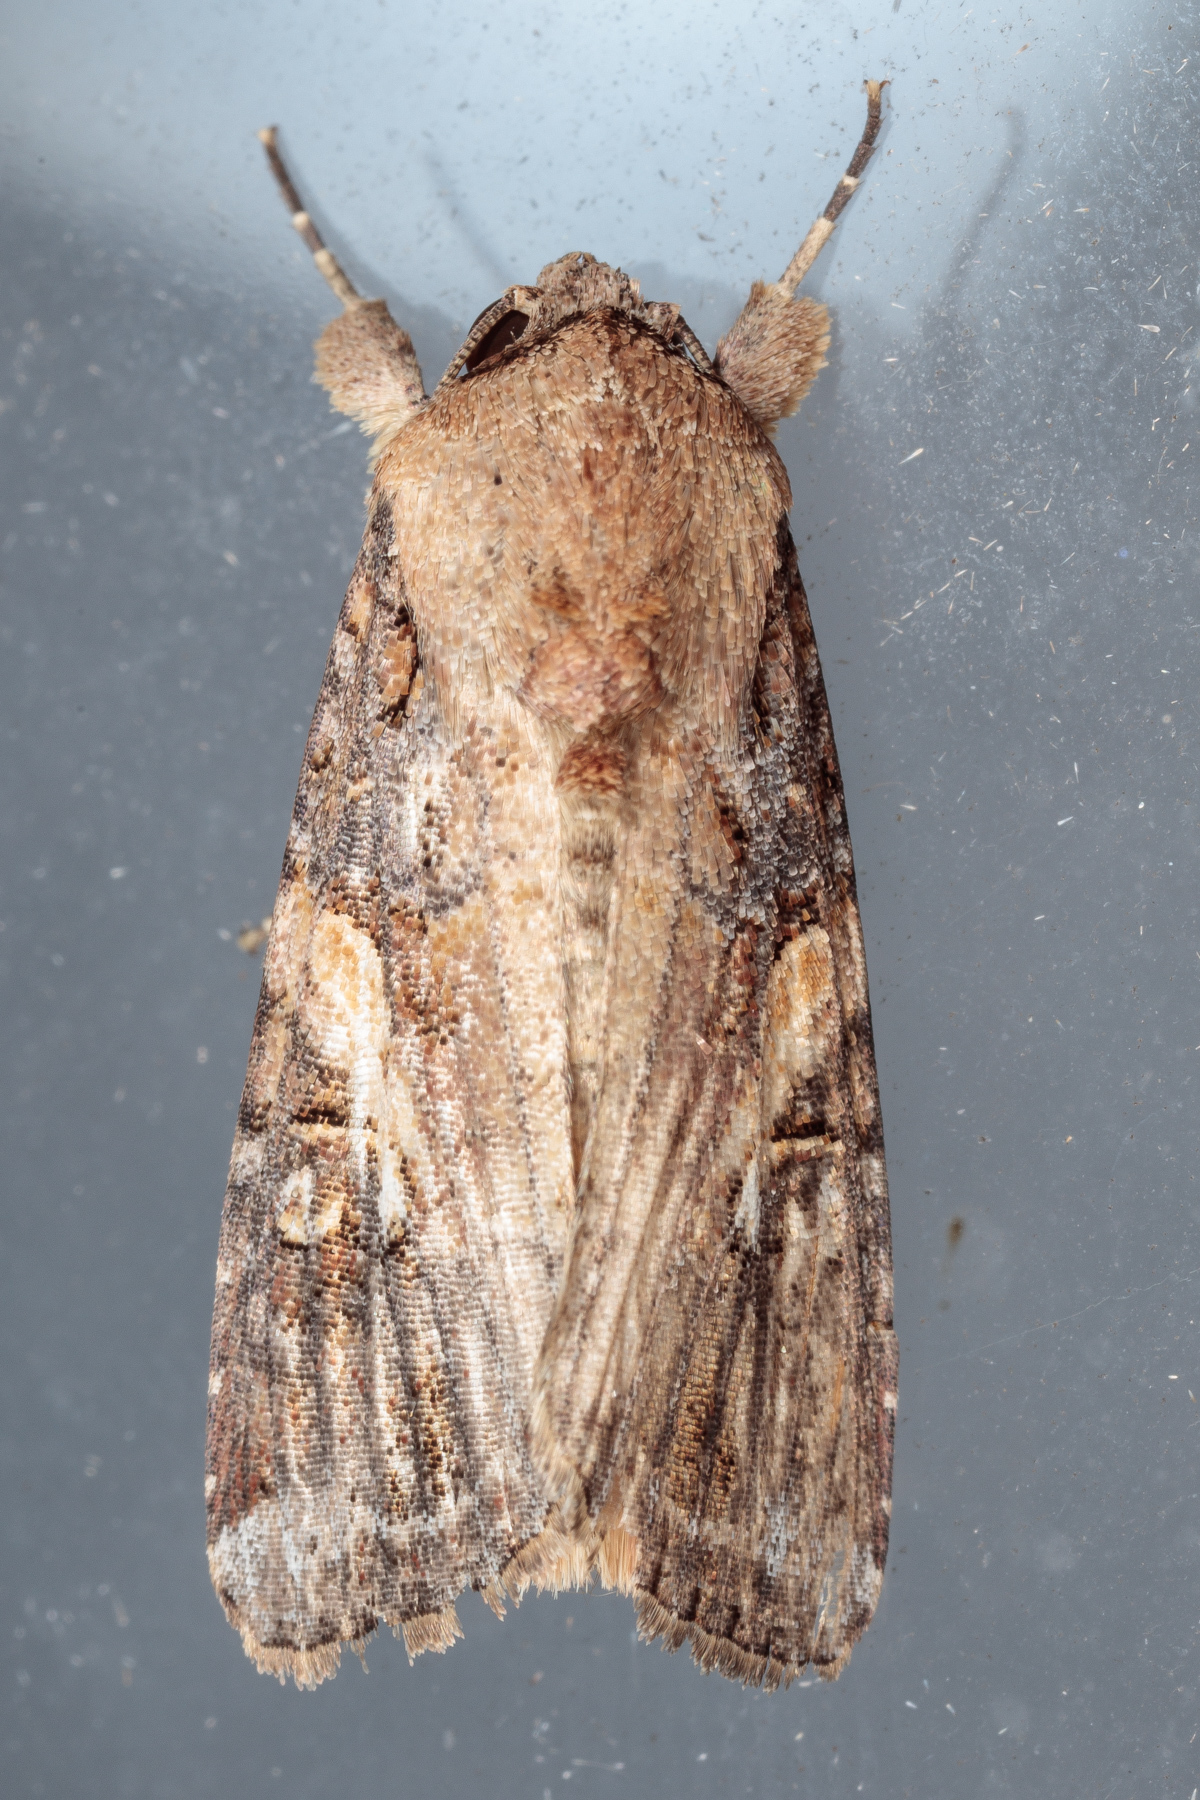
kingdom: Animalia
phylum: Arthropoda
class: Insecta
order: Lepidoptera
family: Noctuidae
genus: Spodoptera
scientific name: Spodoptera frugiperda
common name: Fall armyworm
